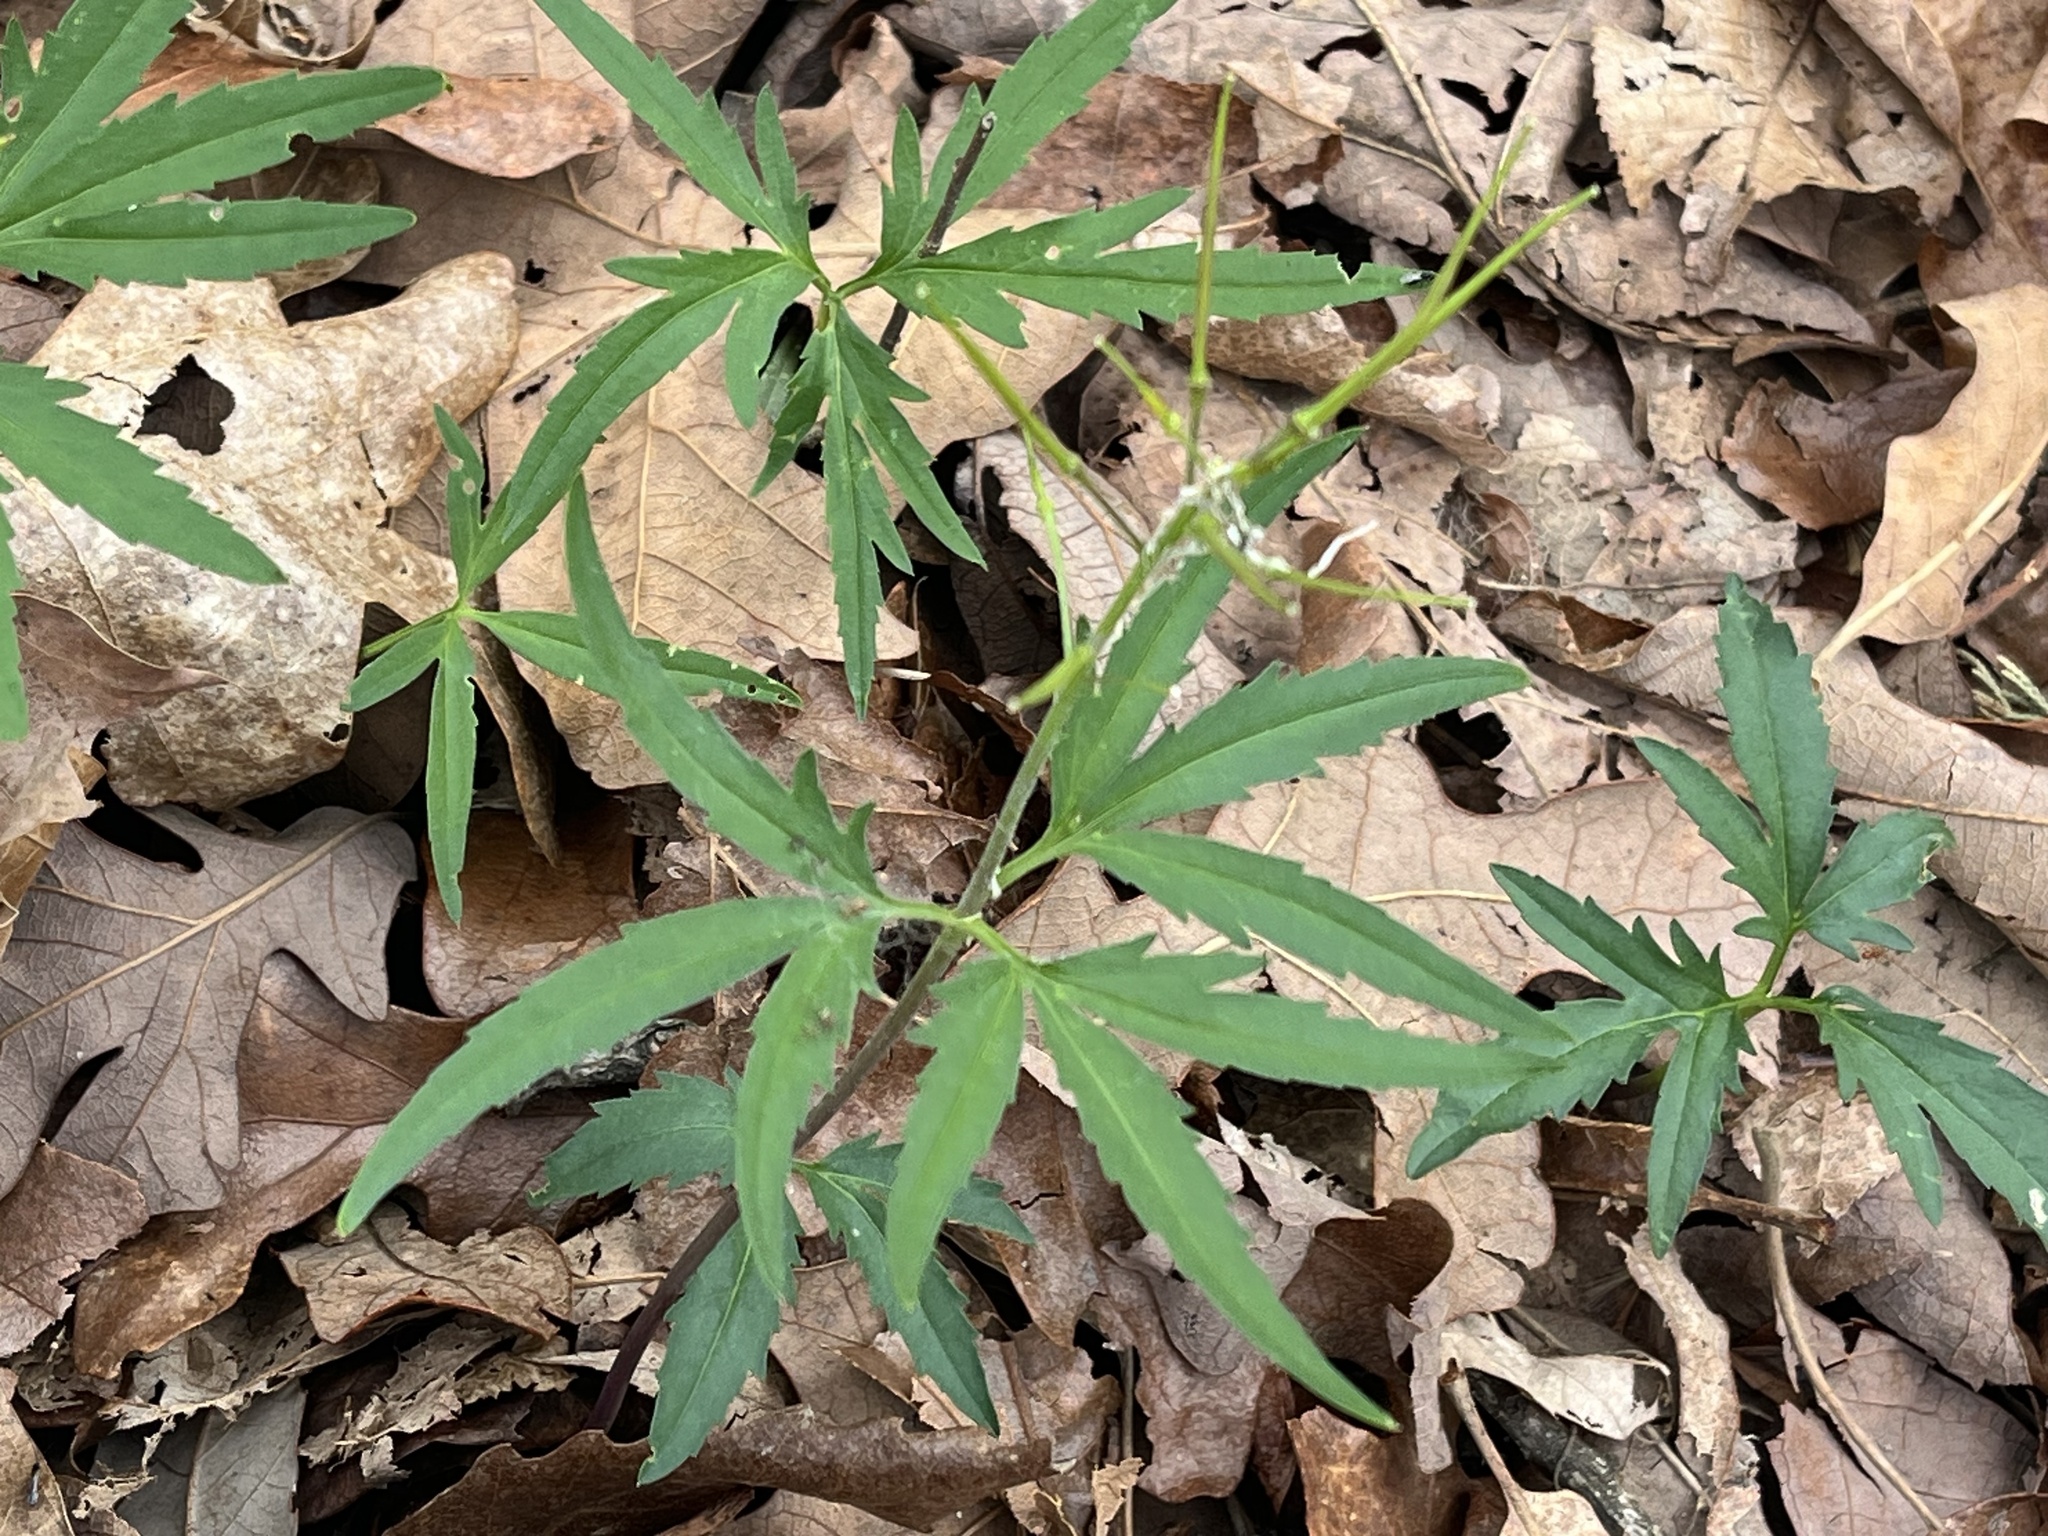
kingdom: Plantae
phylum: Tracheophyta
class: Magnoliopsida
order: Brassicales
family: Brassicaceae
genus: Cardamine
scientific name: Cardamine concatenata
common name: Cut-leaf toothcup
